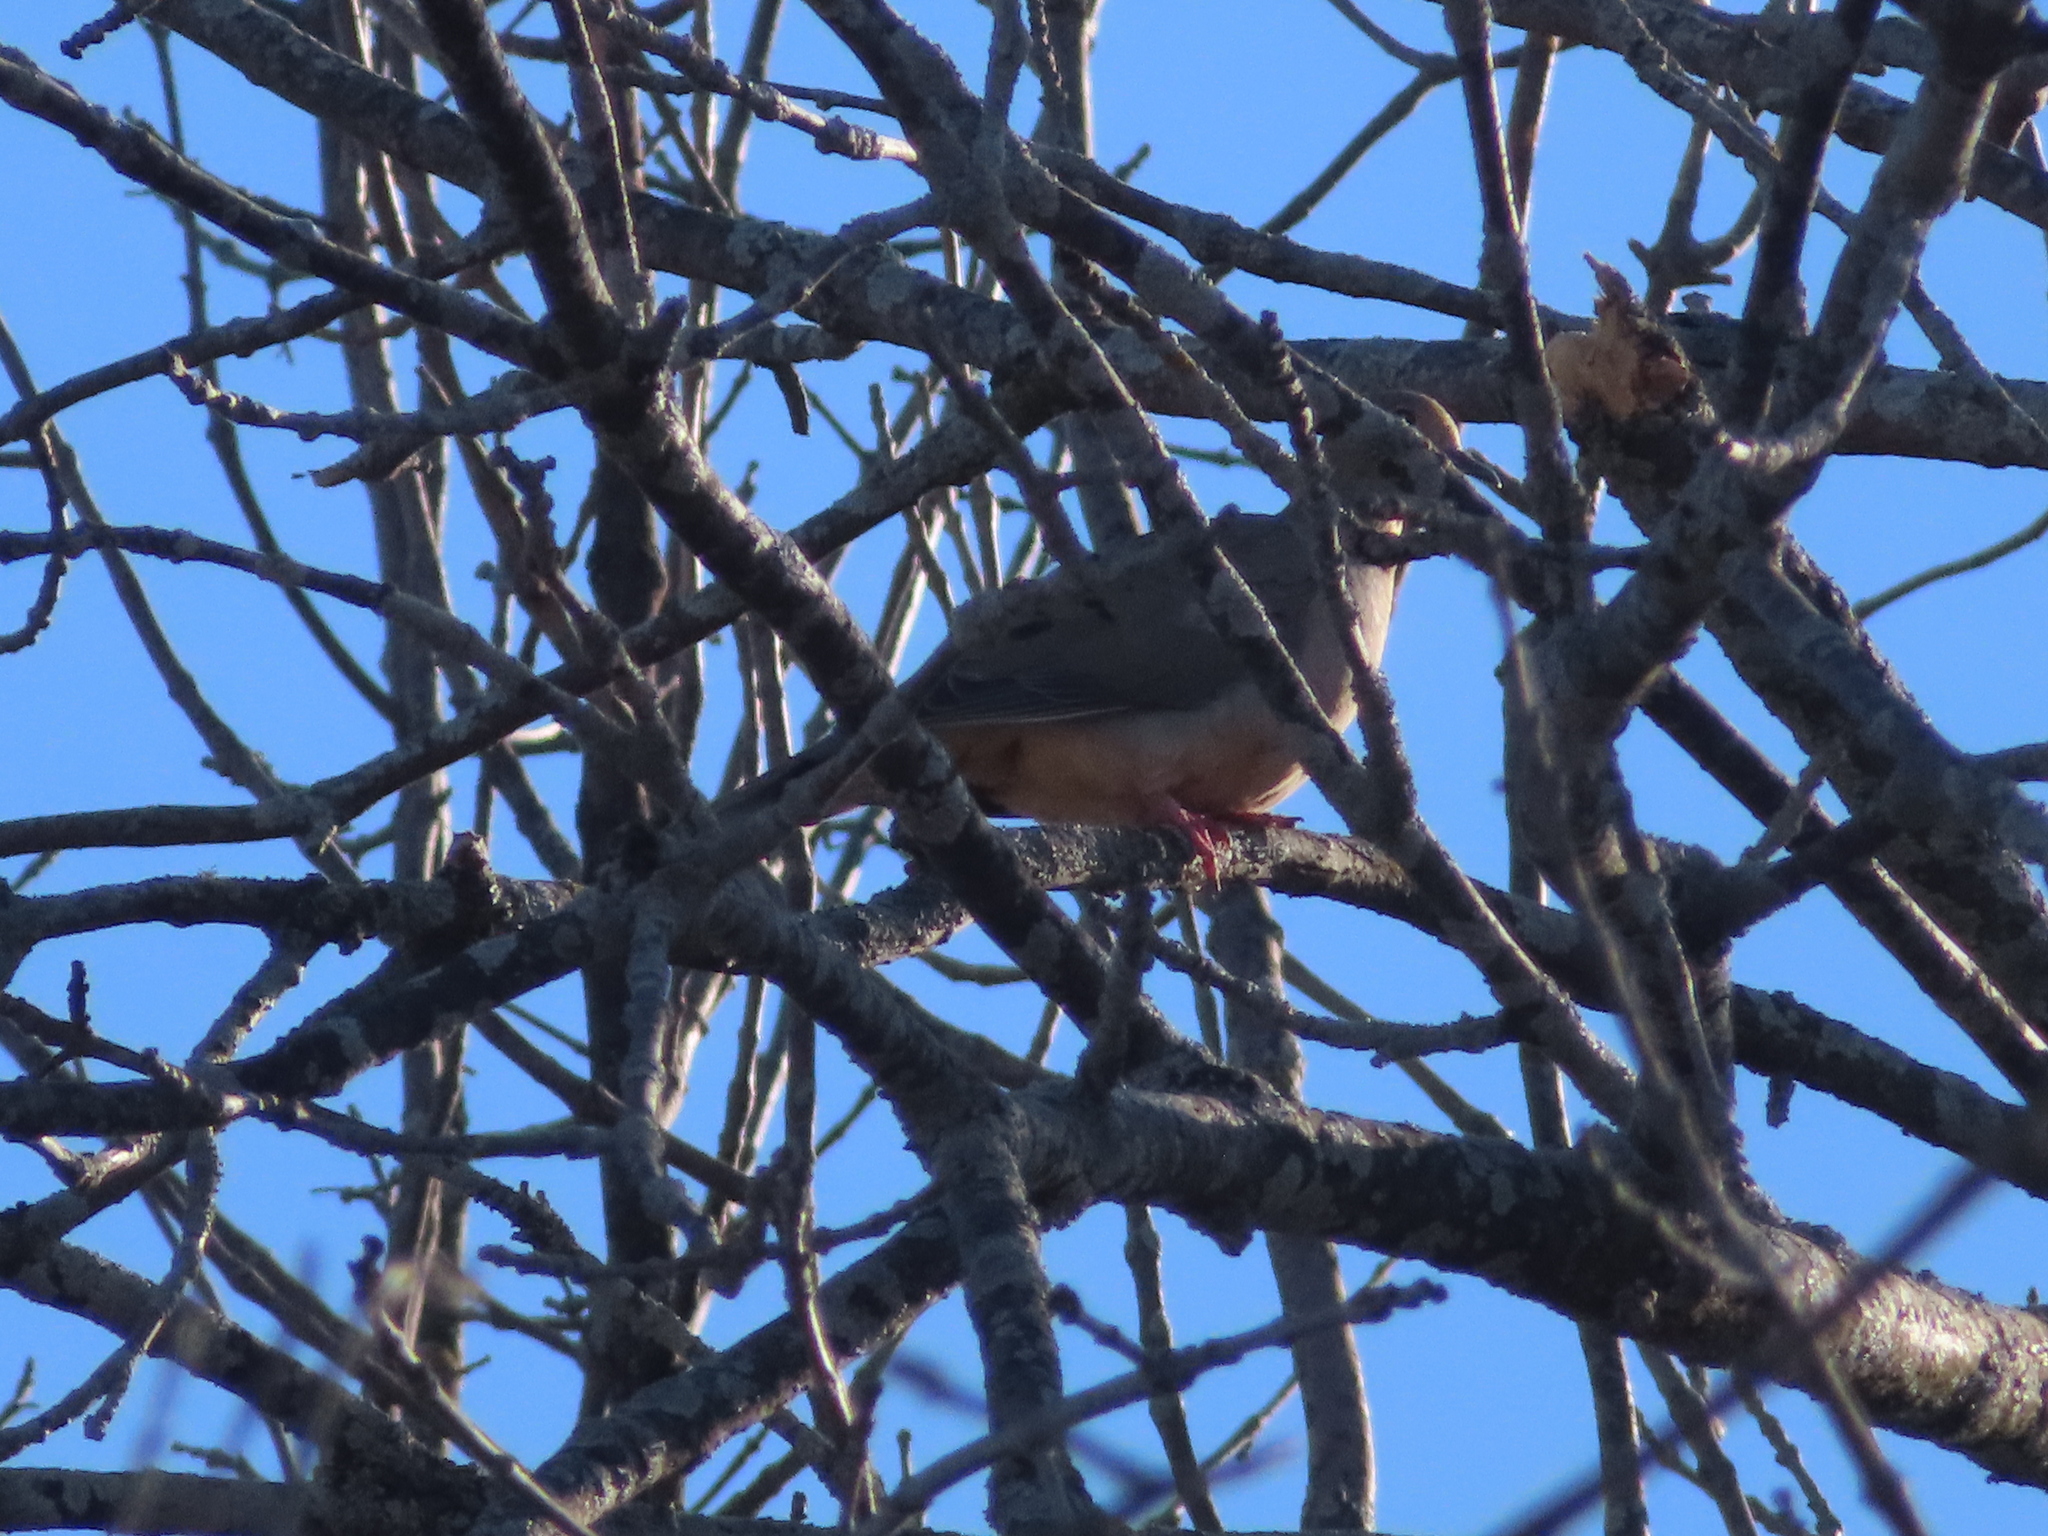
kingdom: Animalia
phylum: Chordata
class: Aves
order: Columbiformes
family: Columbidae
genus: Zenaida
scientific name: Zenaida macroura
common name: Mourning dove
